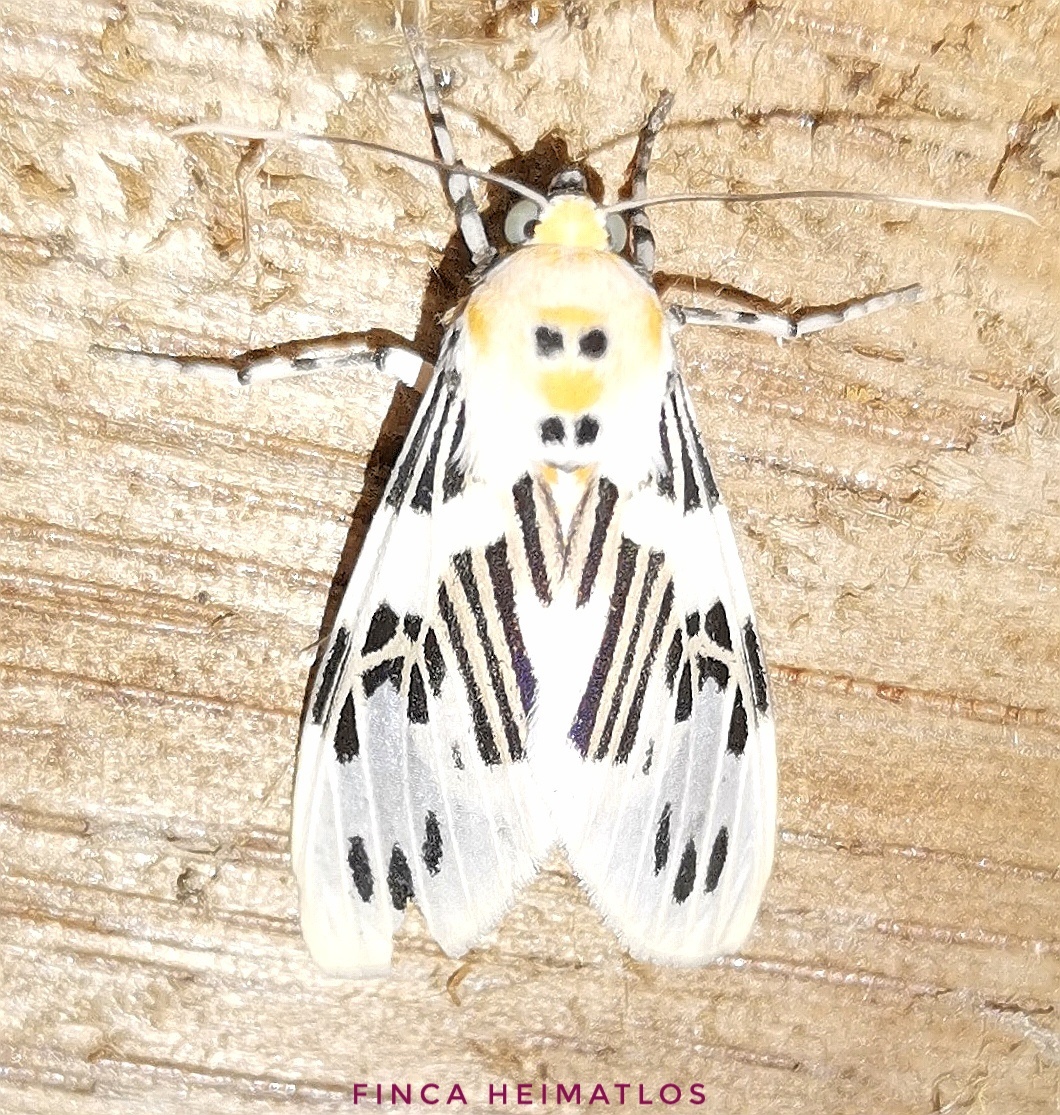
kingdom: Animalia
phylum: Arthropoda
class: Insecta
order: Lepidoptera
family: Erebidae
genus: Idalus
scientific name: Idalus daga
